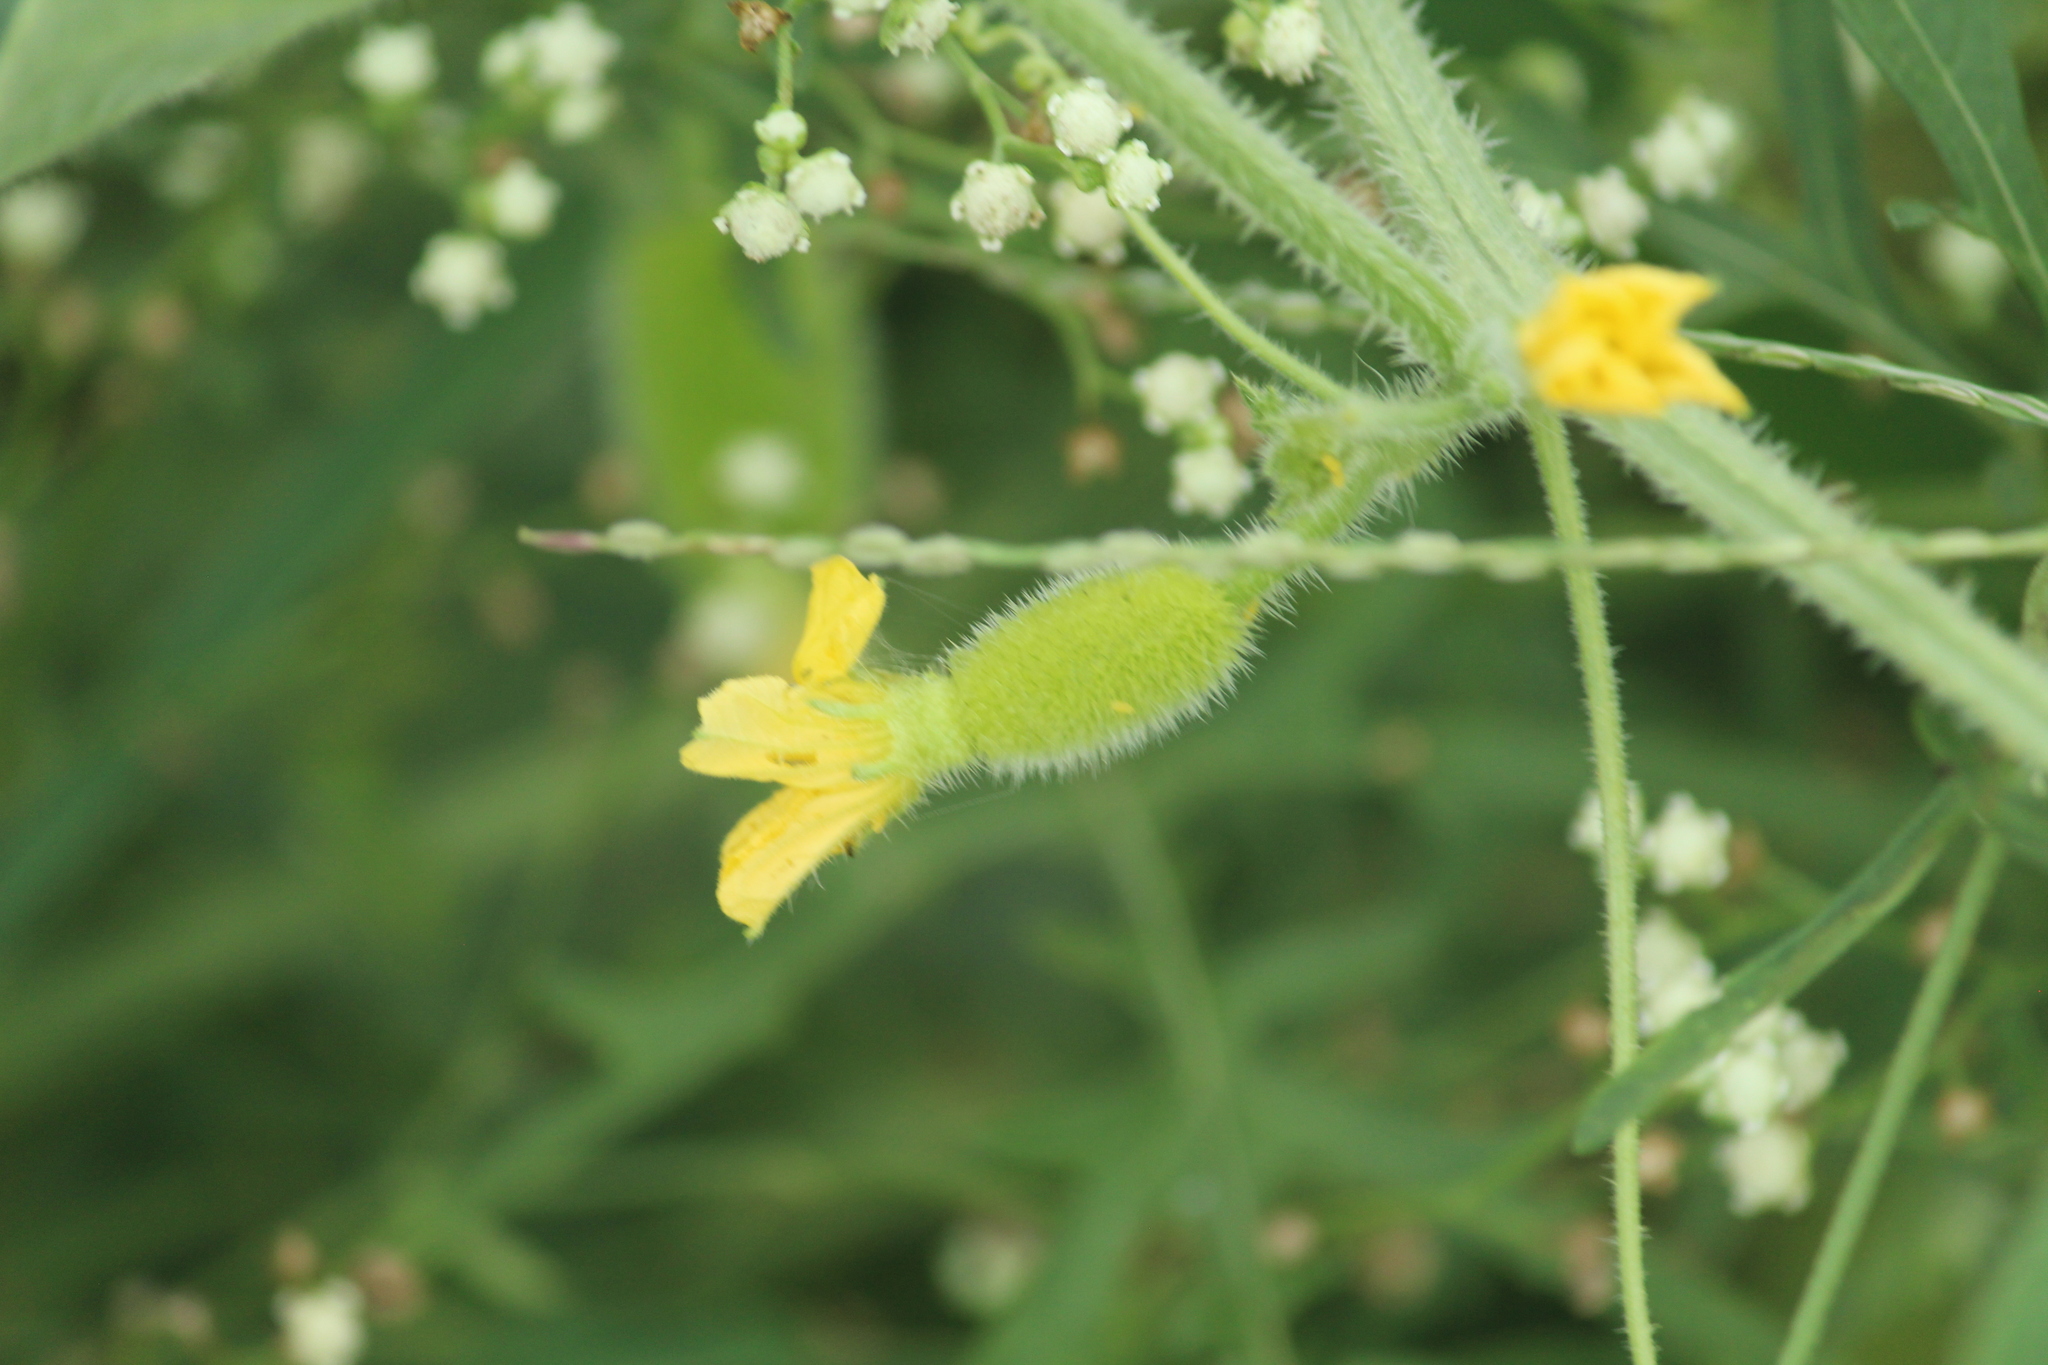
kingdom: Plantae
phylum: Tracheophyta
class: Magnoliopsida
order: Cucurbitales
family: Cucurbitaceae
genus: Cucumis
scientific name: Cucumis dipsaceus
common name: Hedgehog gourd
